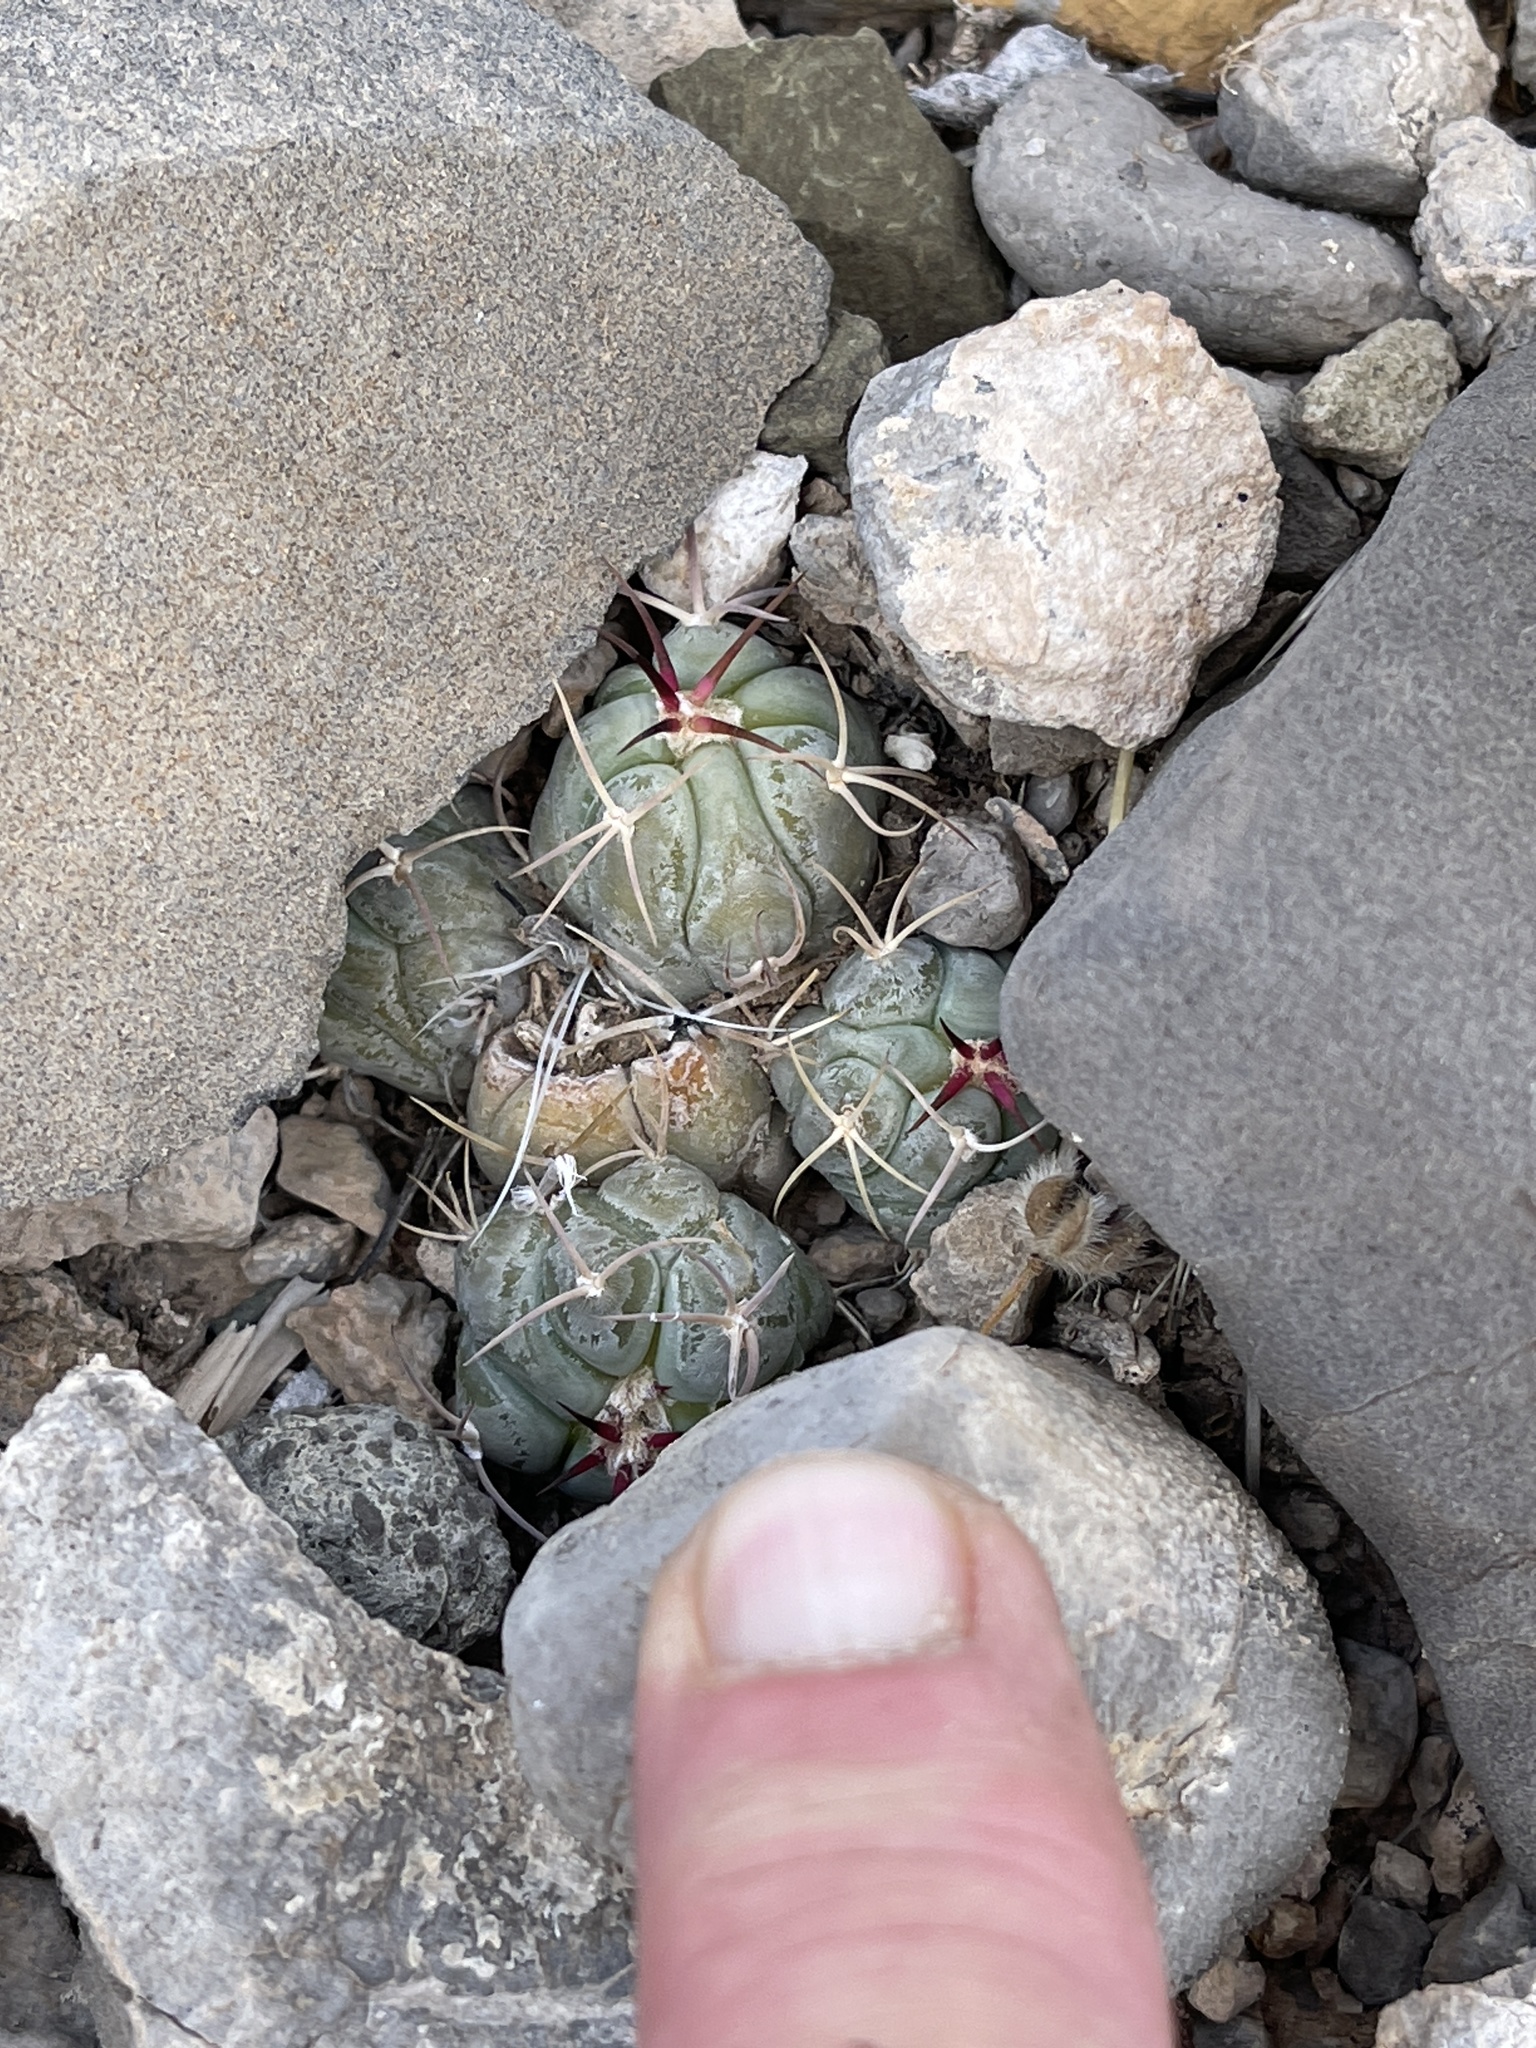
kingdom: Plantae
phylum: Tracheophyta
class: Magnoliopsida
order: Caryophyllales
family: Cactaceae
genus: Echinocactus
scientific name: Echinocactus horizonthalonius
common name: Devilshead
